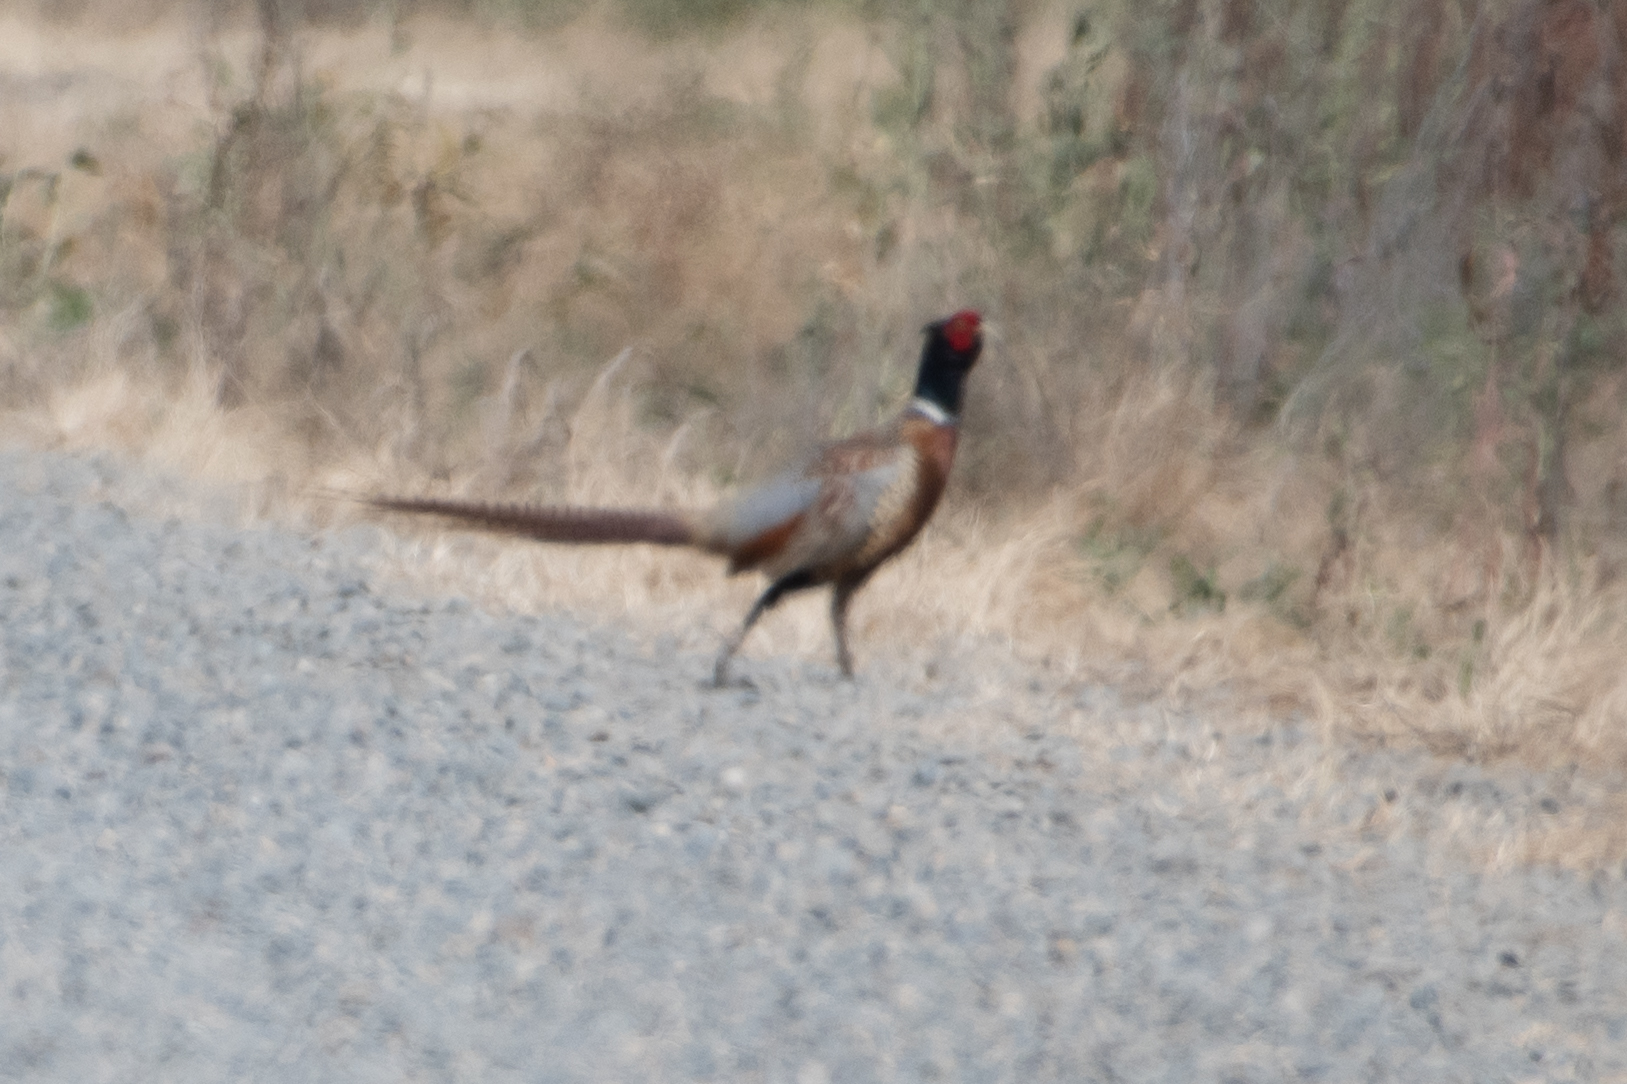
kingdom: Animalia
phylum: Chordata
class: Aves
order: Galliformes
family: Phasianidae
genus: Phasianus
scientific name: Phasianus colchicus
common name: Common pheasant
